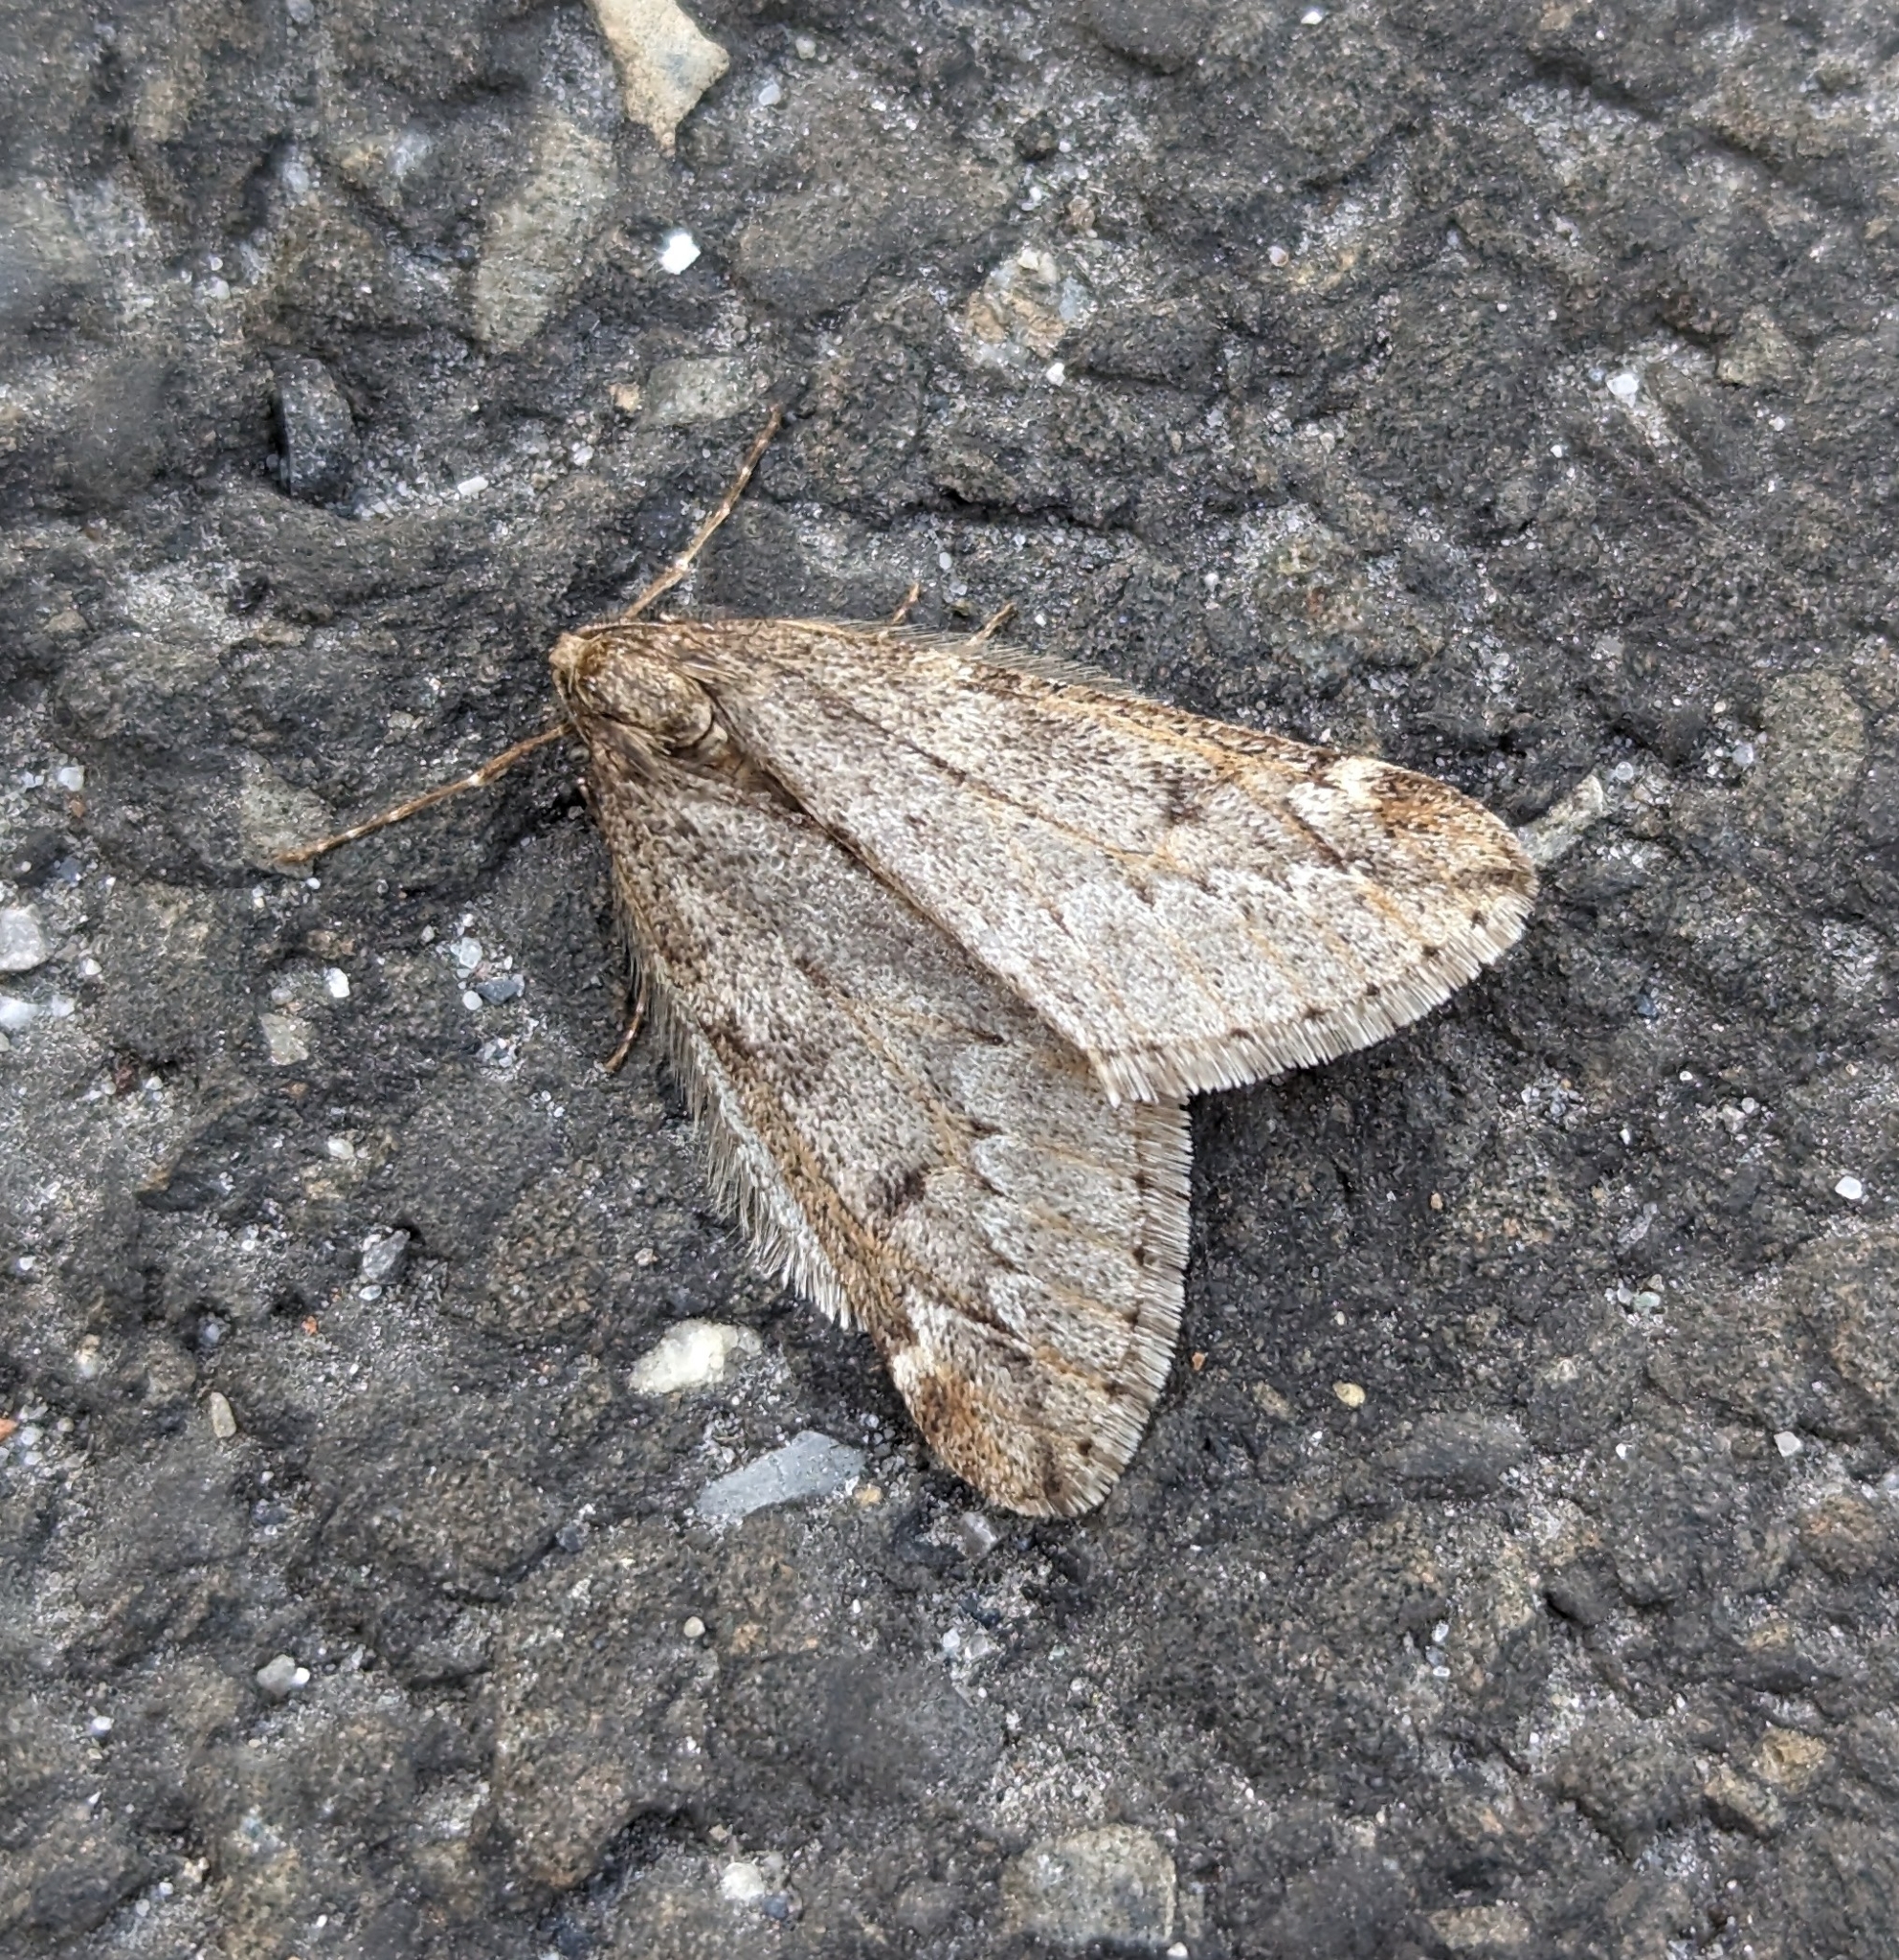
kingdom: Animalia
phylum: Arthropoda
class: Insecta
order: Lepidoptera
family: Geometridae
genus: Alsophila
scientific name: Alsophila aescularia
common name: March moth
